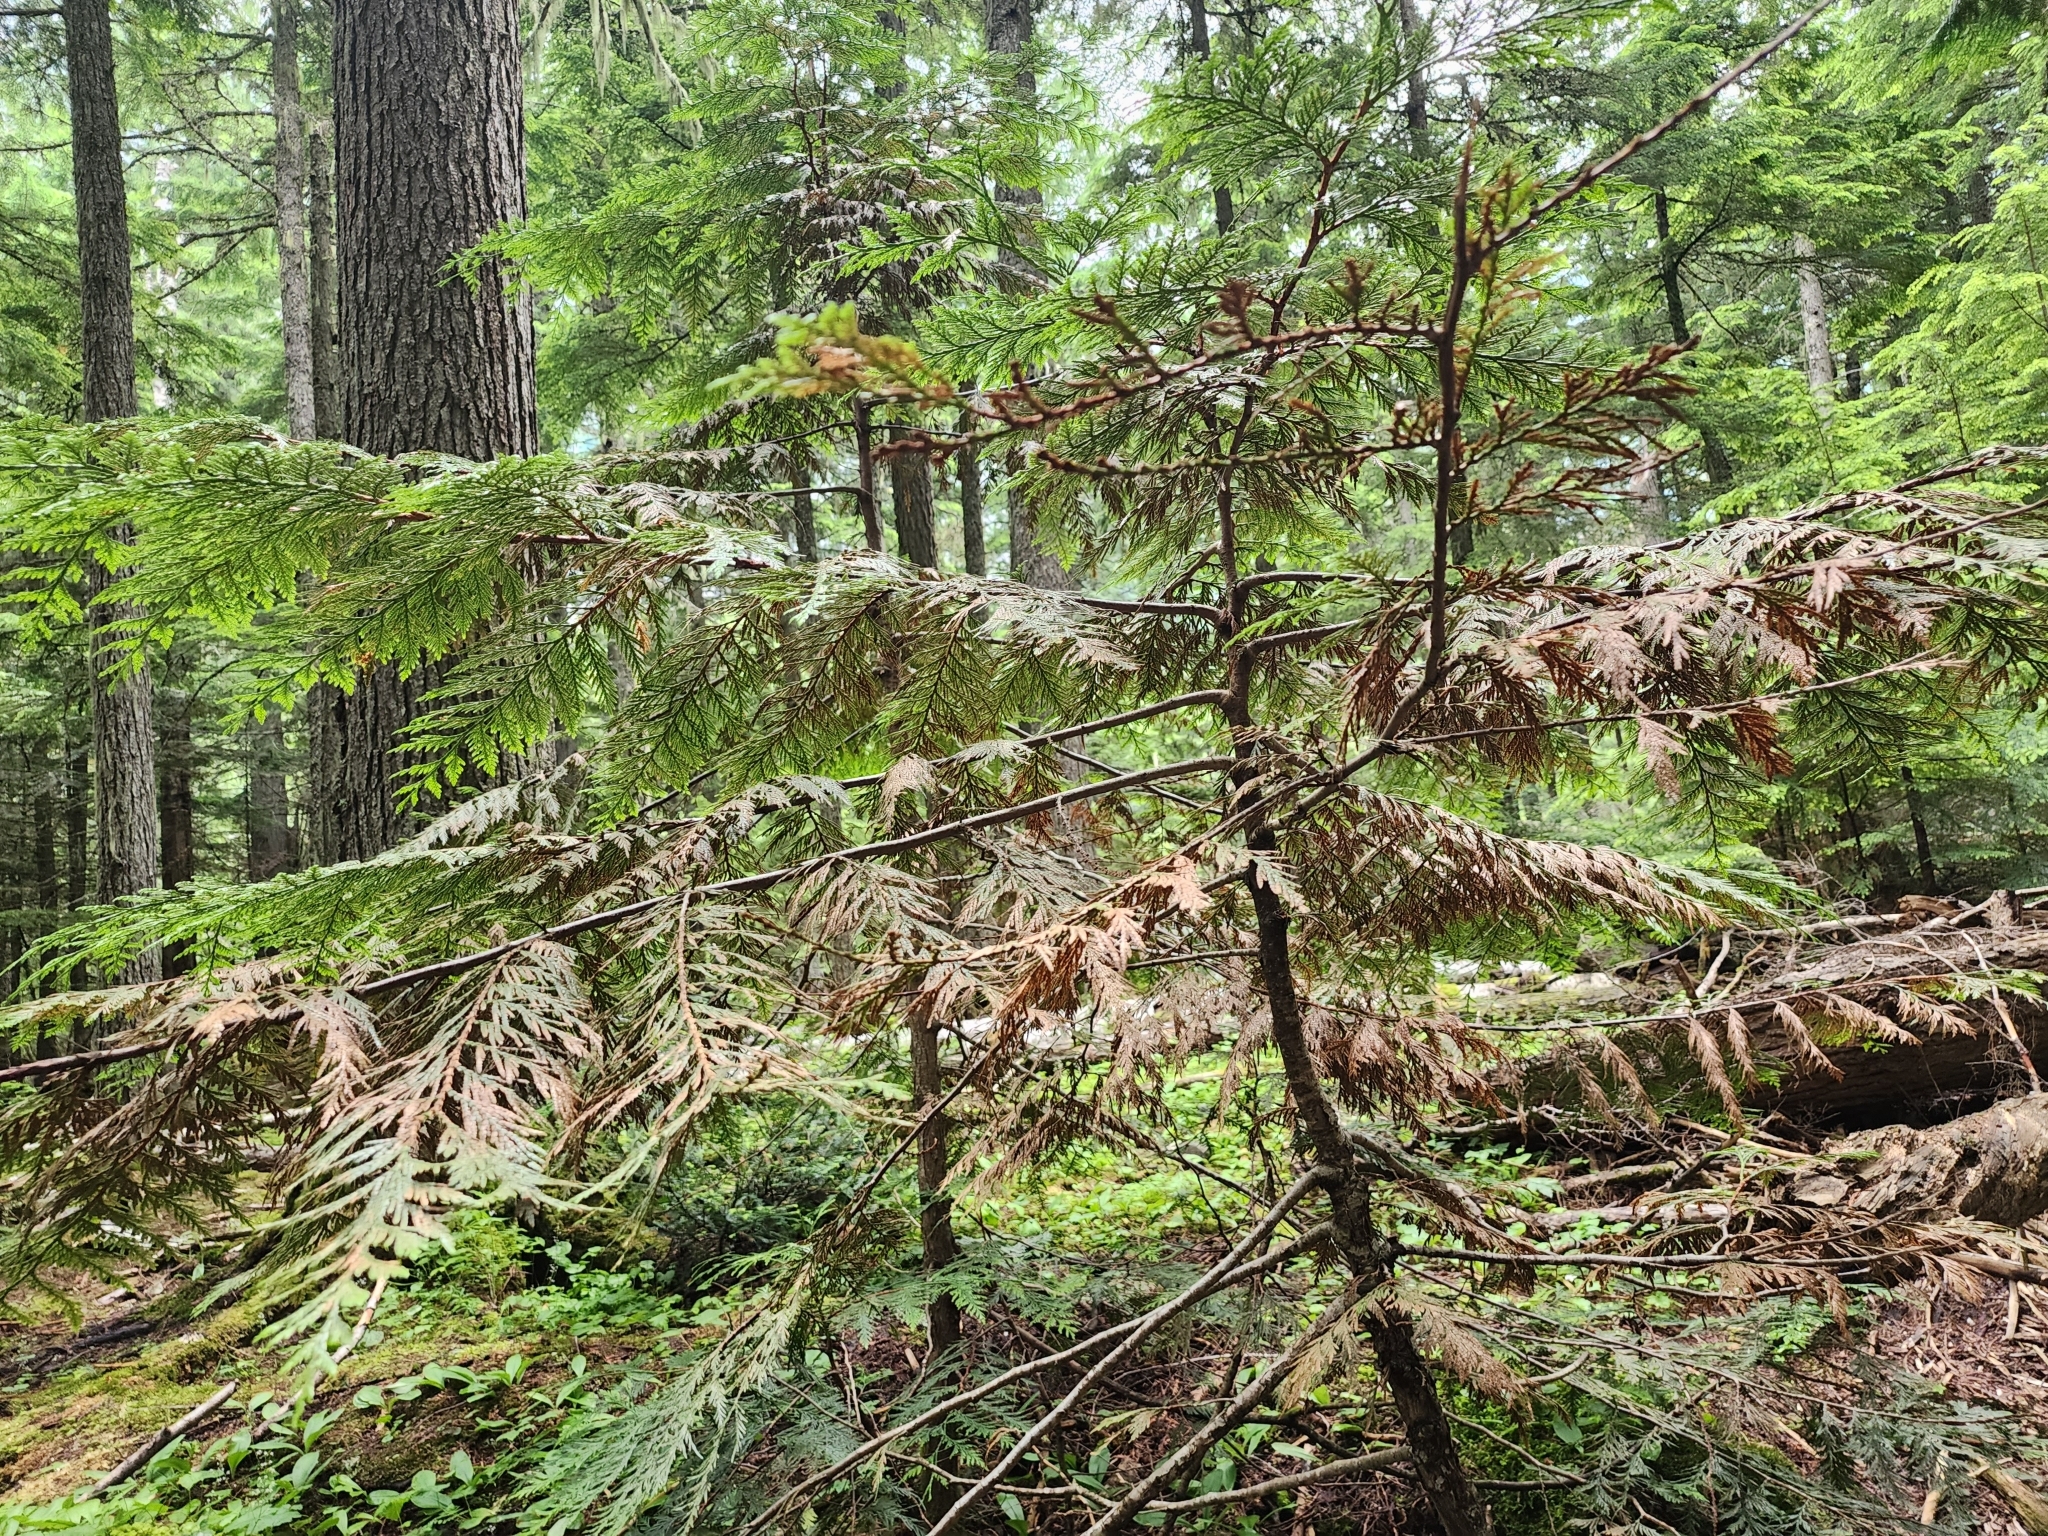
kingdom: Plantae
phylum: Tracheophyta
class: Pinopsida
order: Pinales
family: Cupressaceae
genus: Thuja
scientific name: Thuja plicata
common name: Western red-cedar
